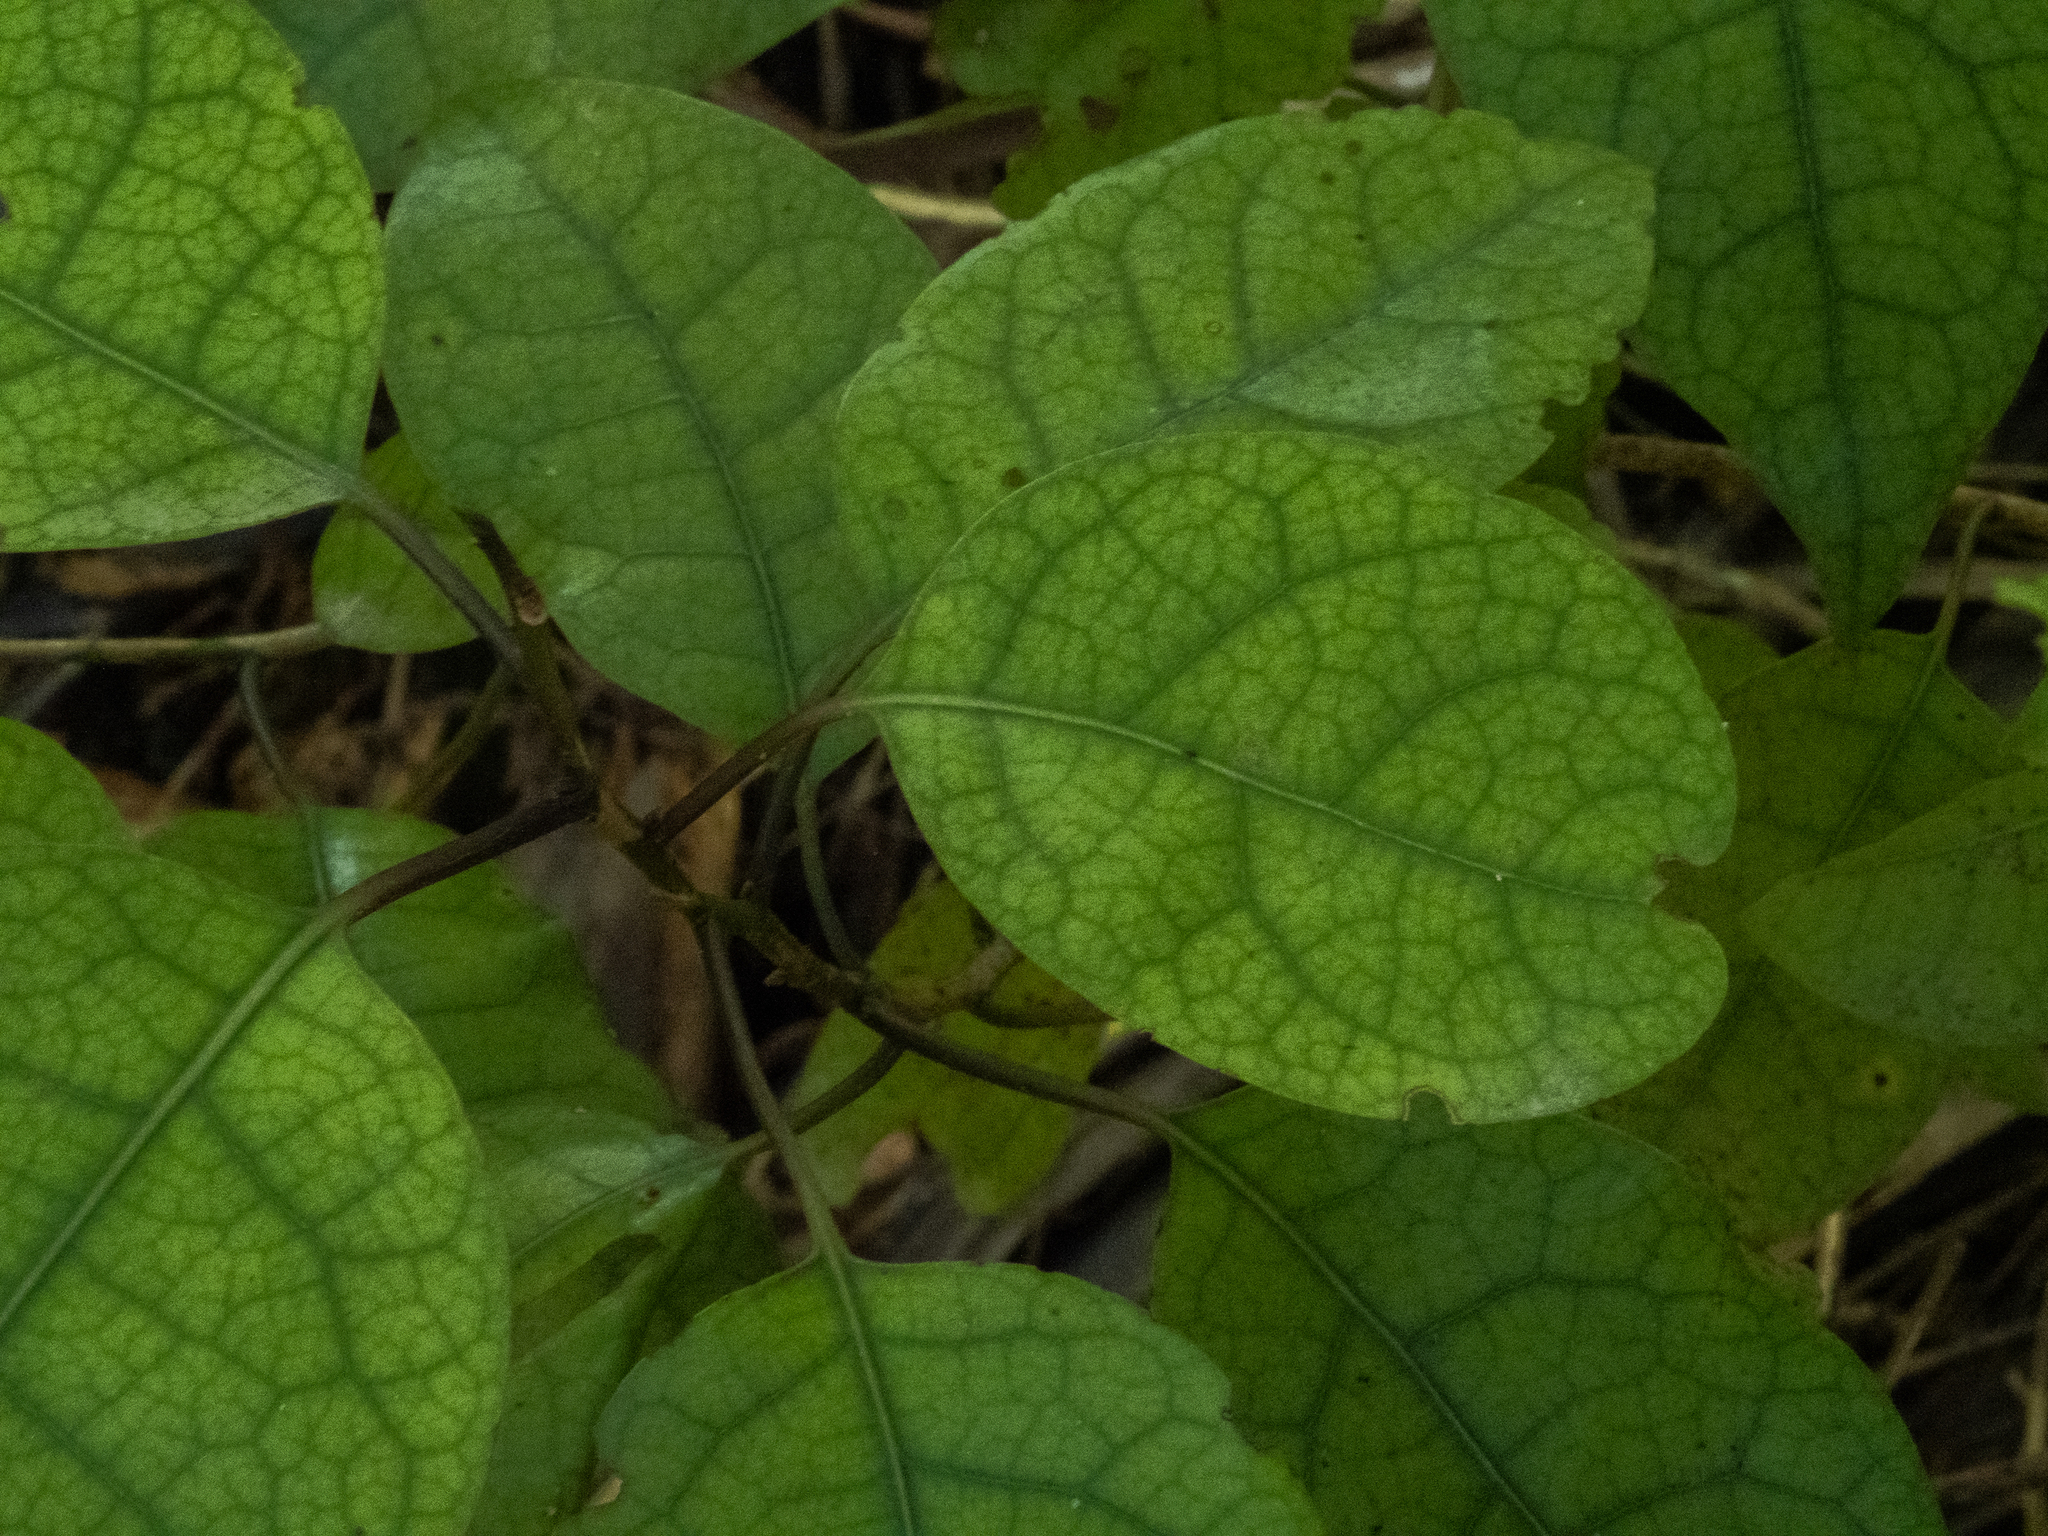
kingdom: Plantae
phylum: Tracheophyta
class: Magnoliopsida
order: Laurales
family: Lauraceae
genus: Litsea
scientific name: Litsea calicaris
